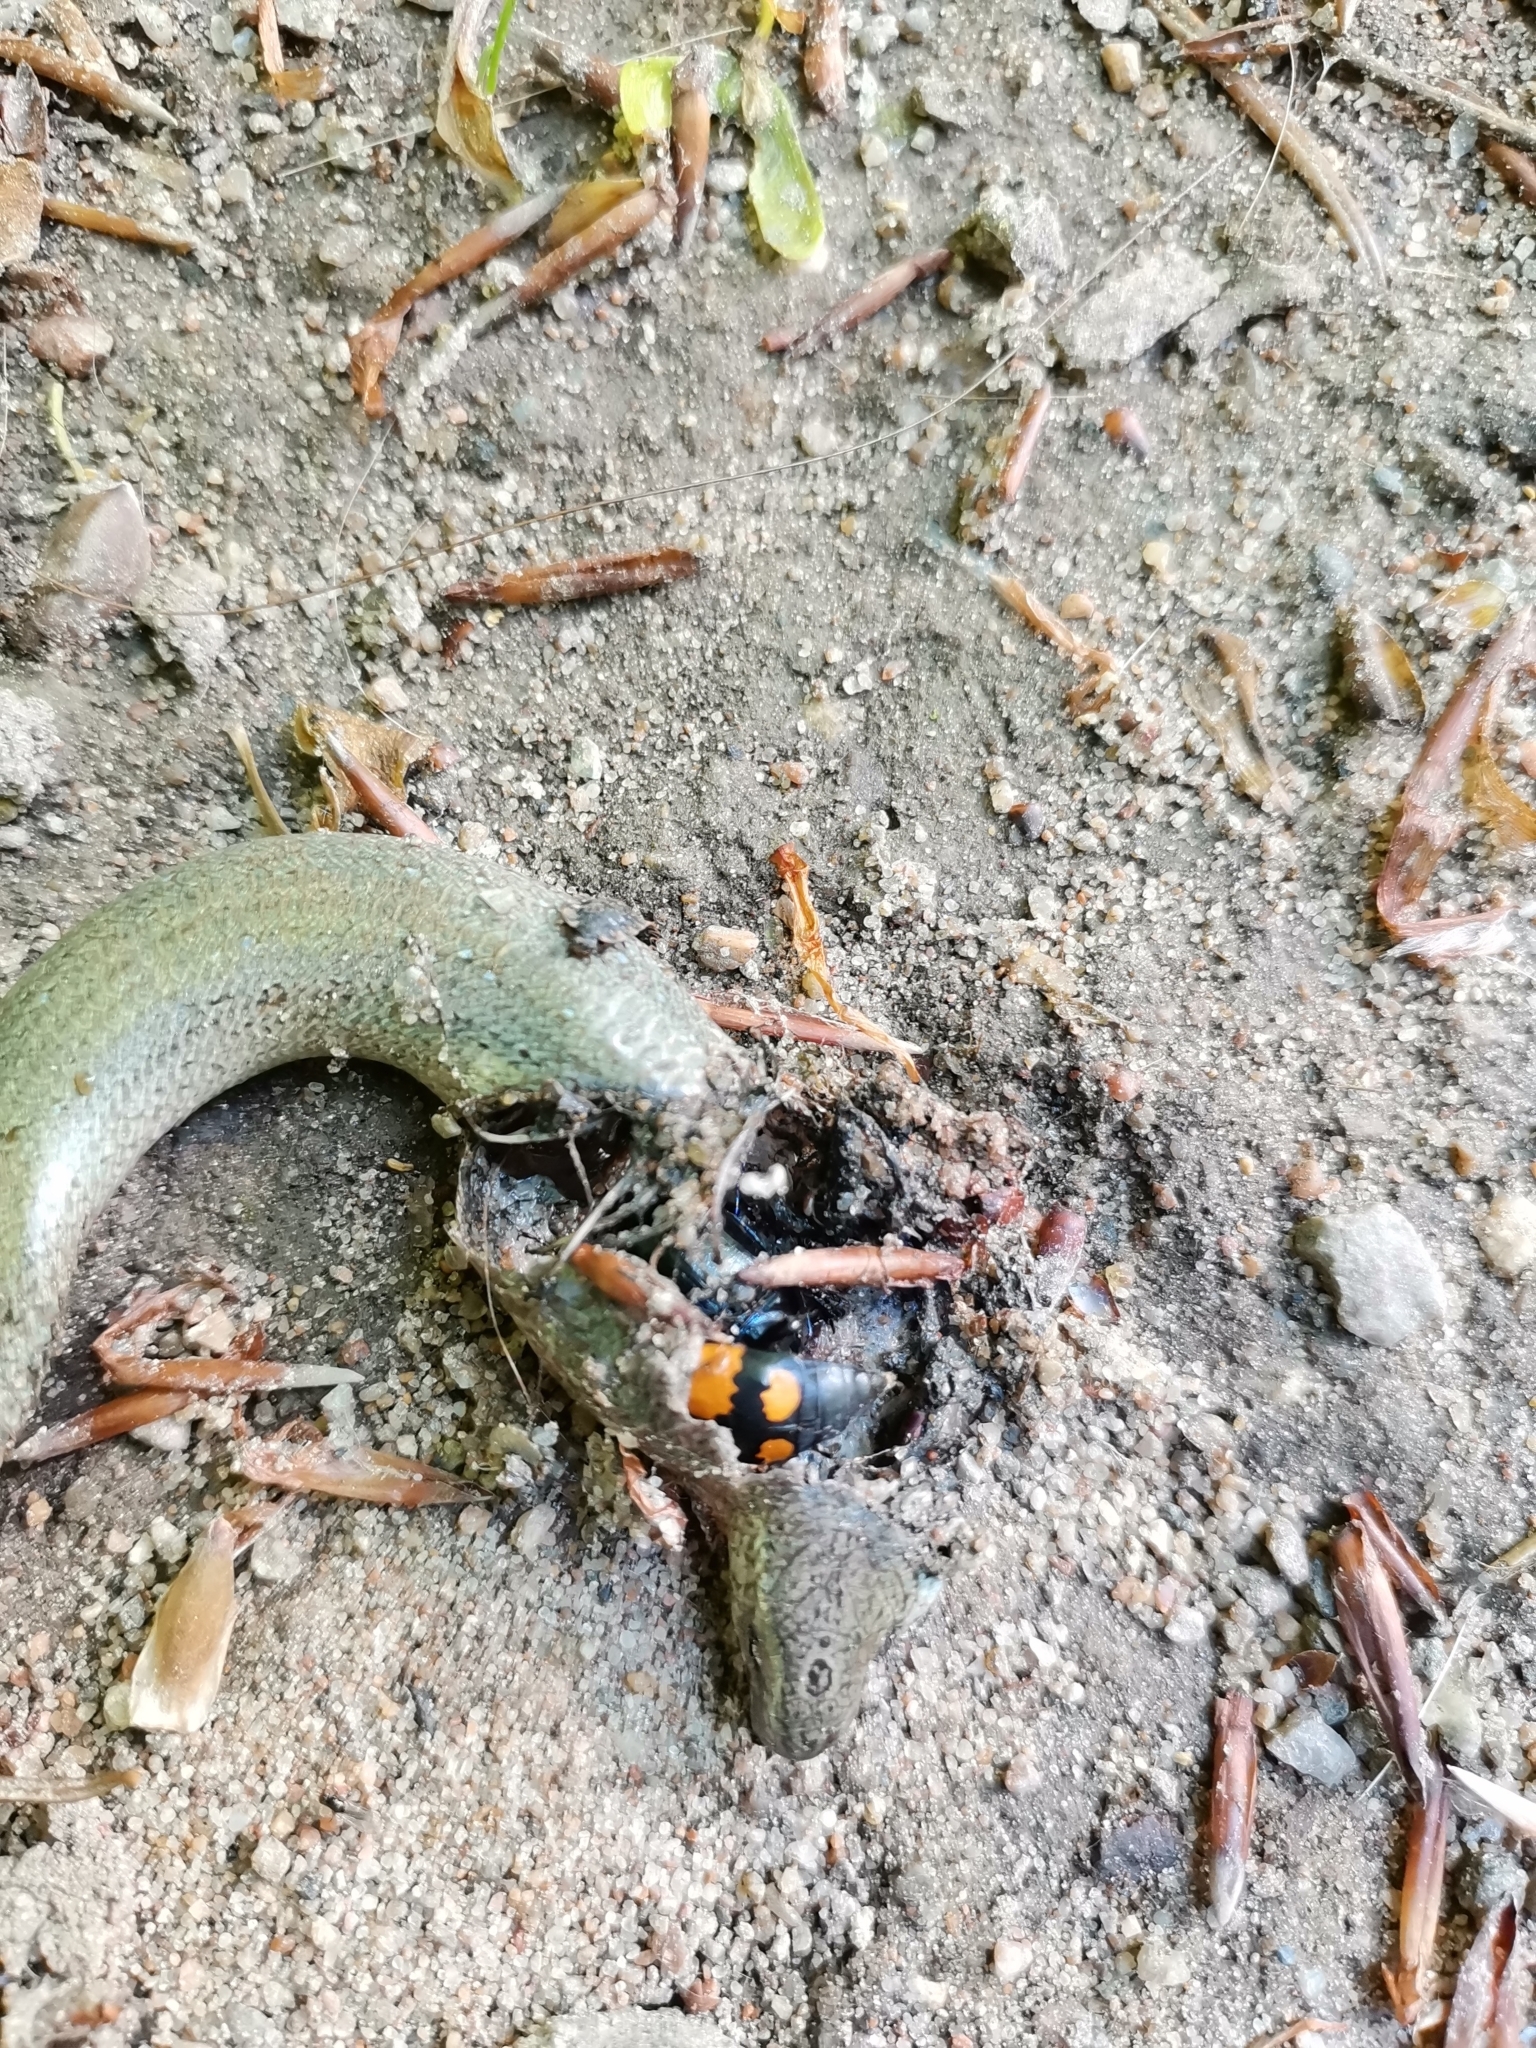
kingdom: Animalia
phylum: Chordata
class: Squamata
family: Anguidae
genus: Anguis
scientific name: Anguis fragilis
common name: Slow worm
